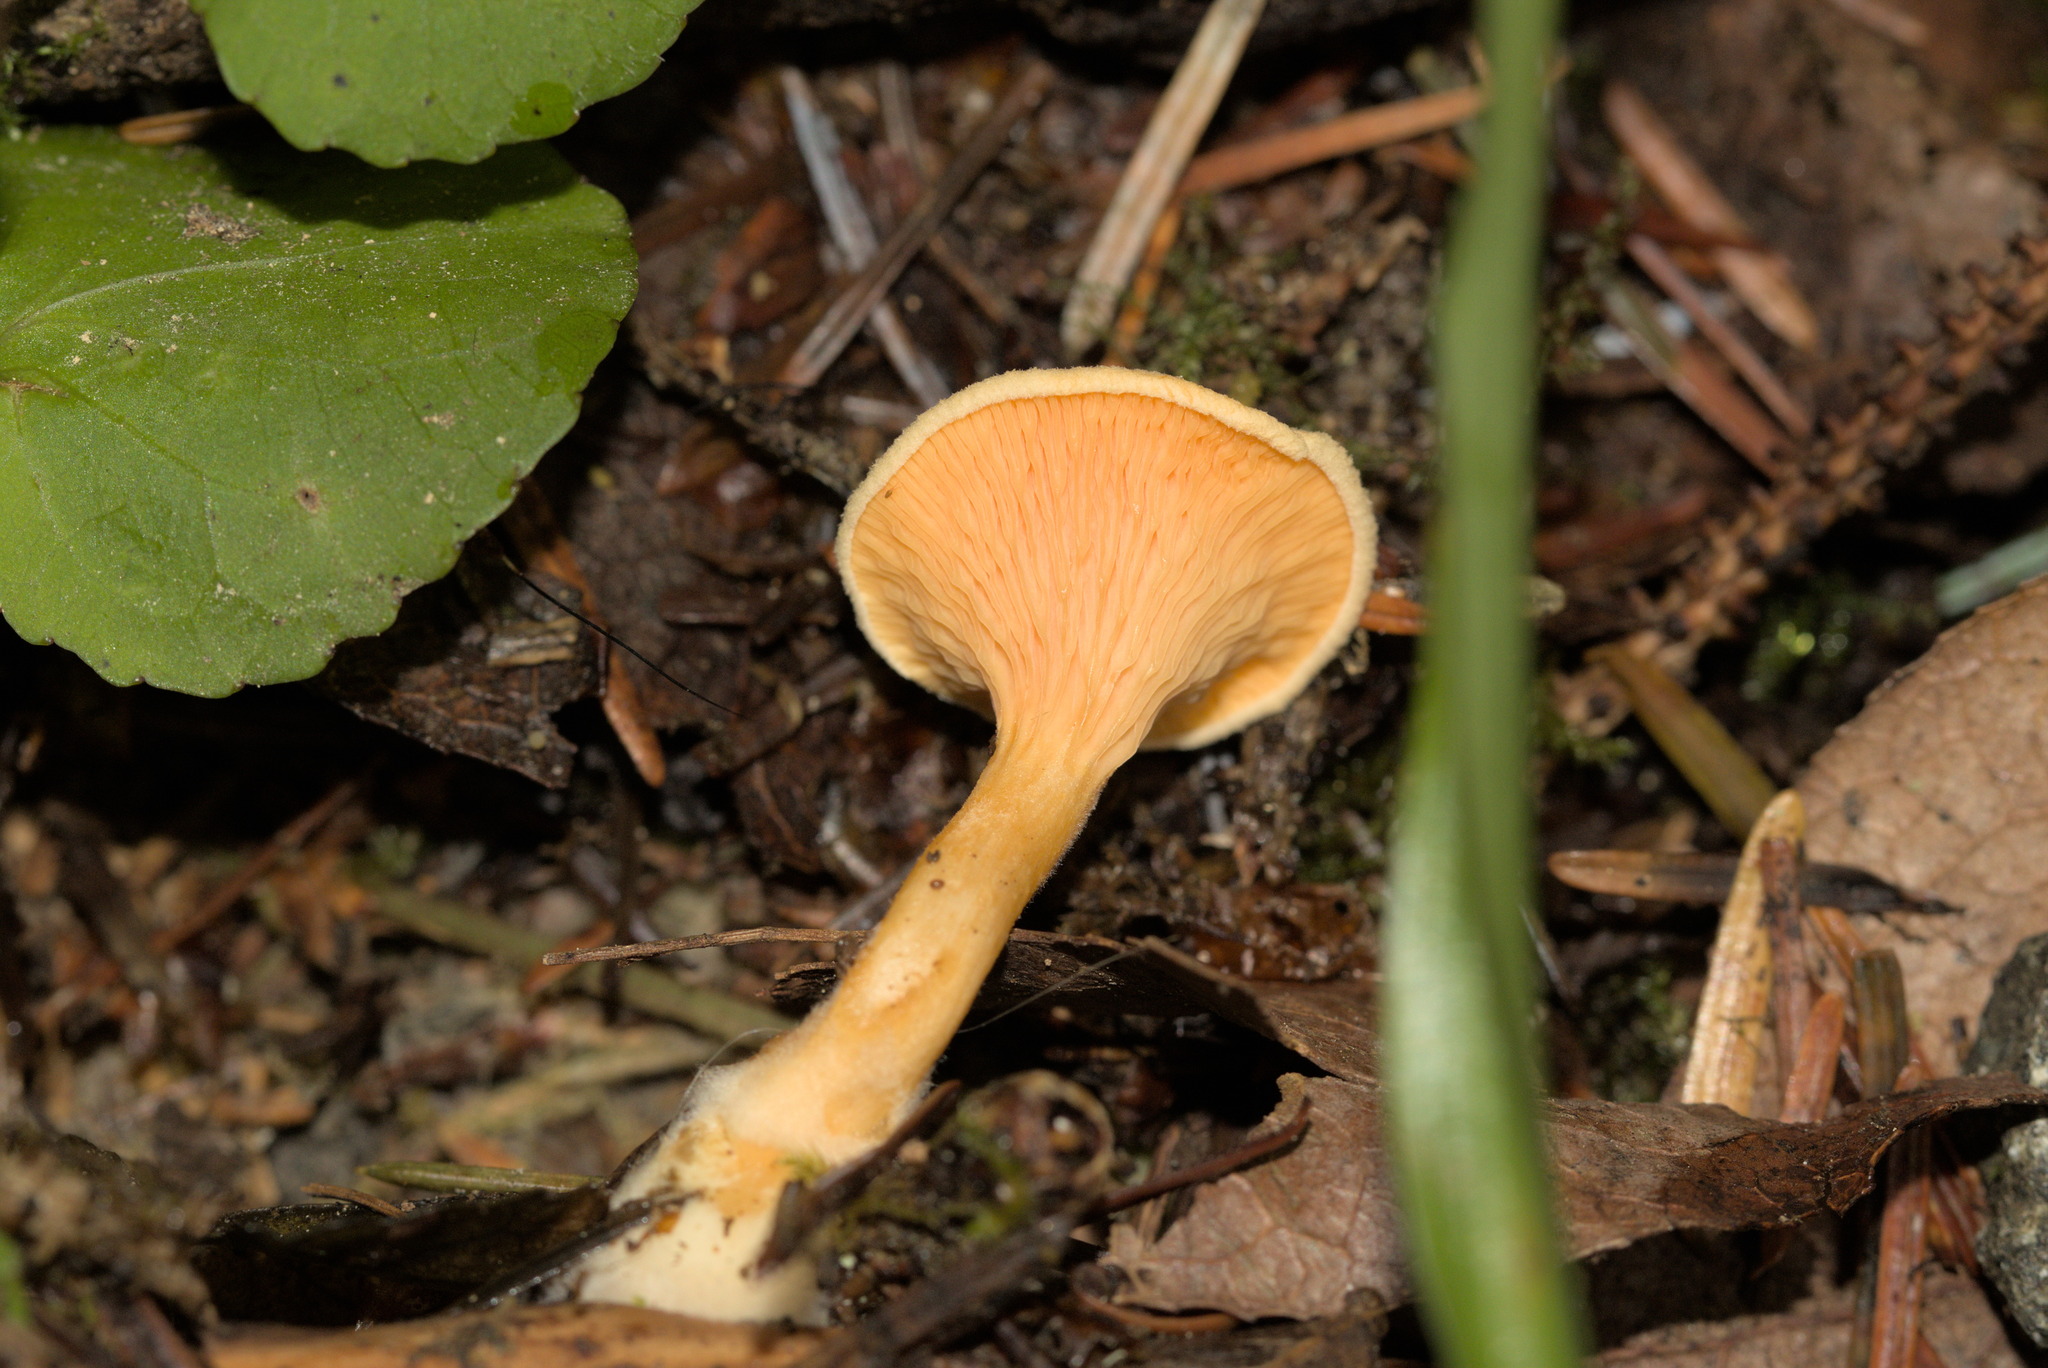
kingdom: Fungi
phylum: Basidiomycota
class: Agaricomycetes
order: Boletales
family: Hygrophoropsidaceae
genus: Hygrophoropsis
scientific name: Hygrophoropsis aurantiaca
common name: False chanterelle
